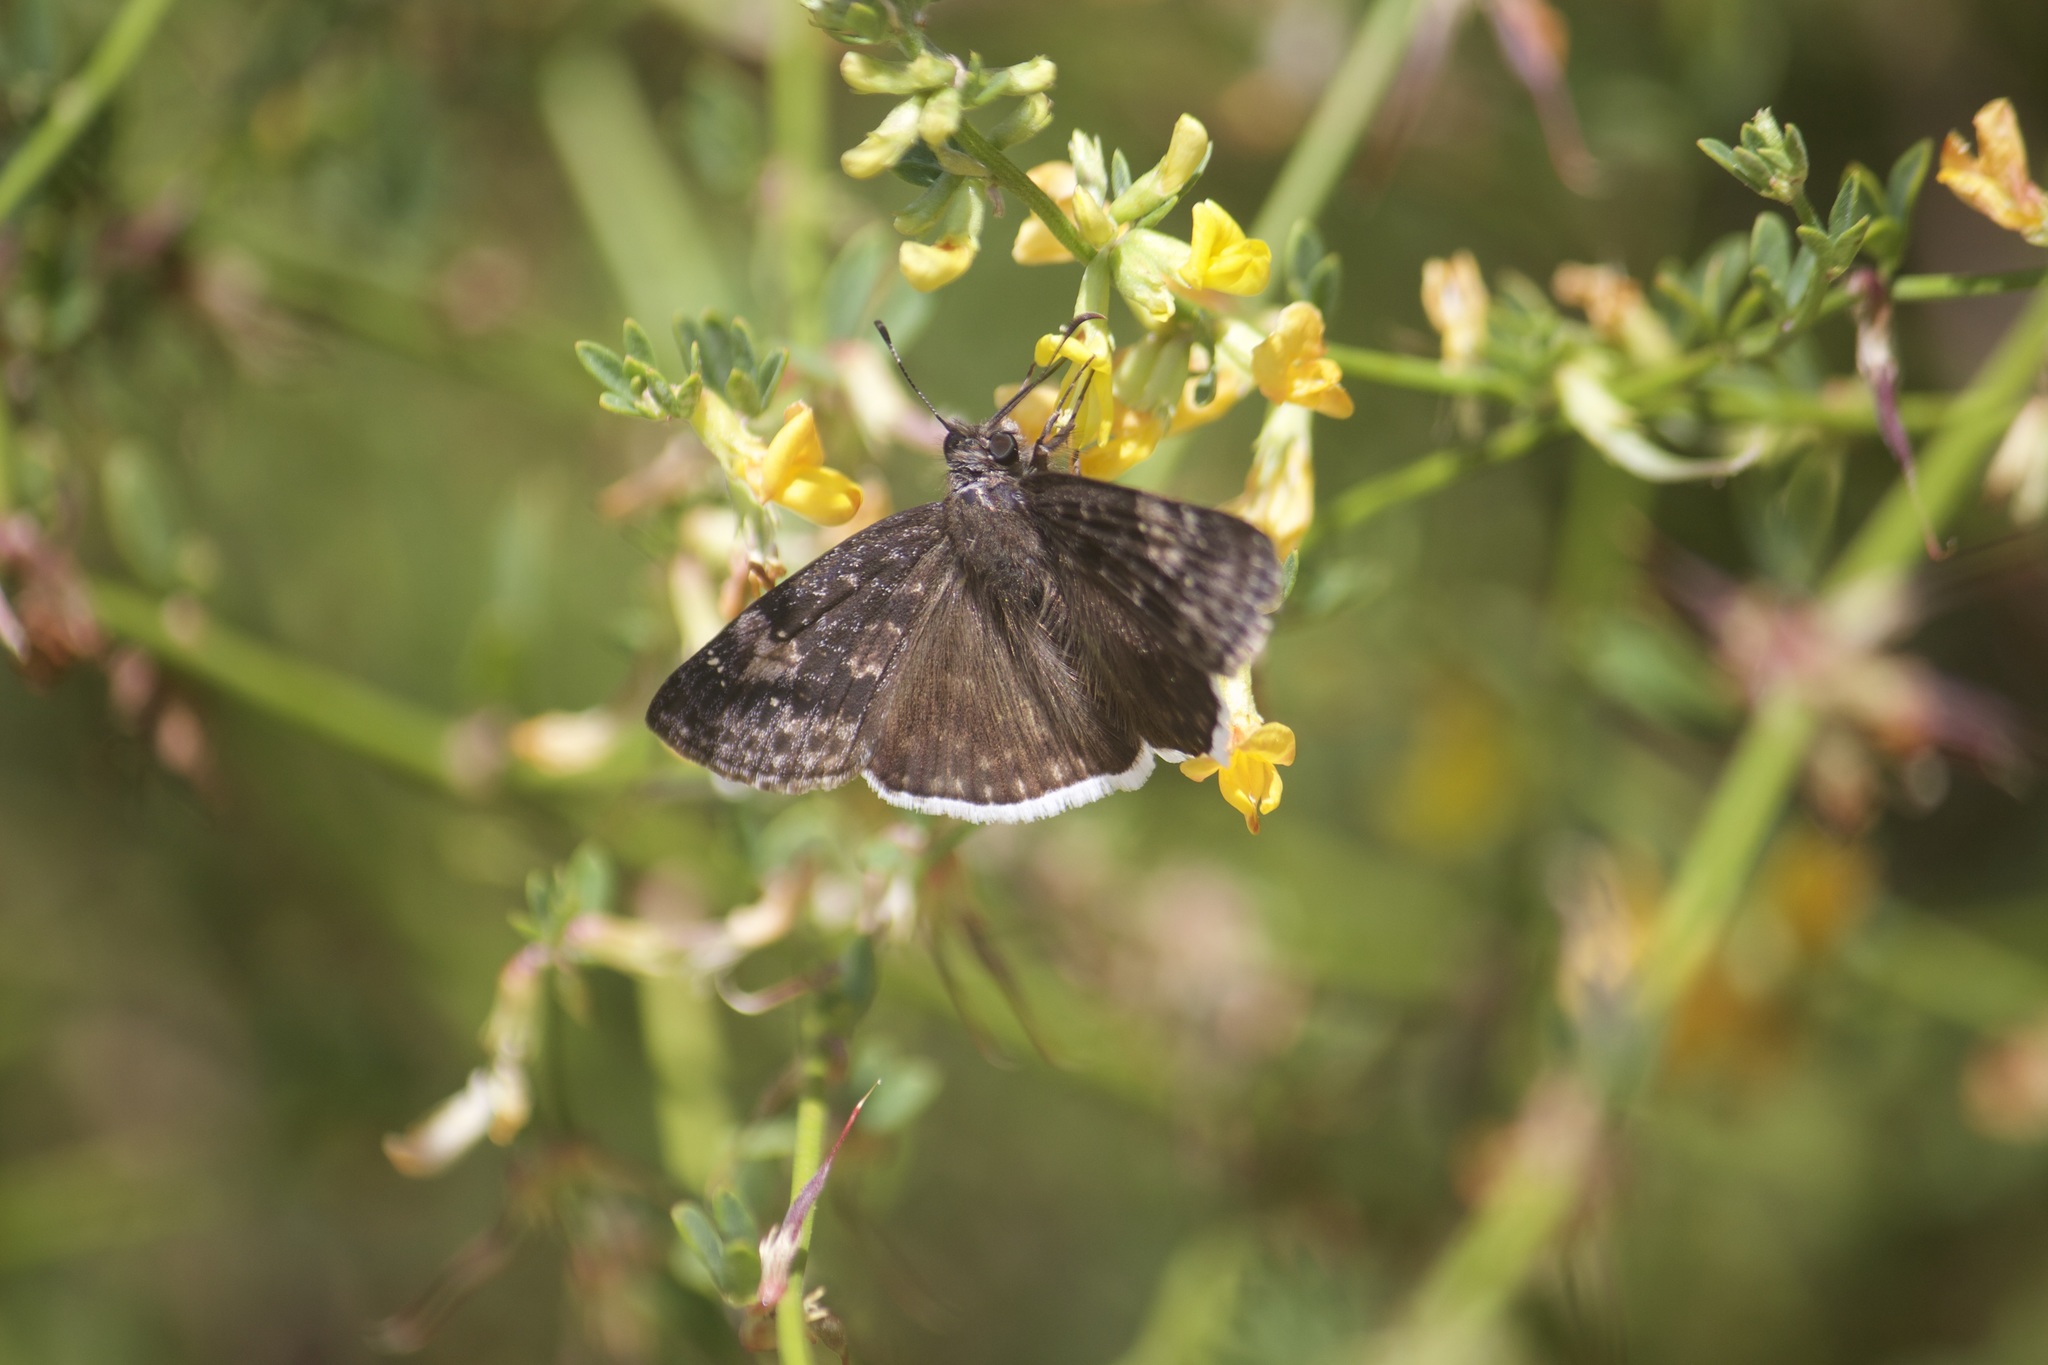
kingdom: Animalia
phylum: Arthropoda
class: Insecta
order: Lepidoptera
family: Hesperiidae
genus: Erynnis
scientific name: Erynnis funeralis
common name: Funereal duskywing
